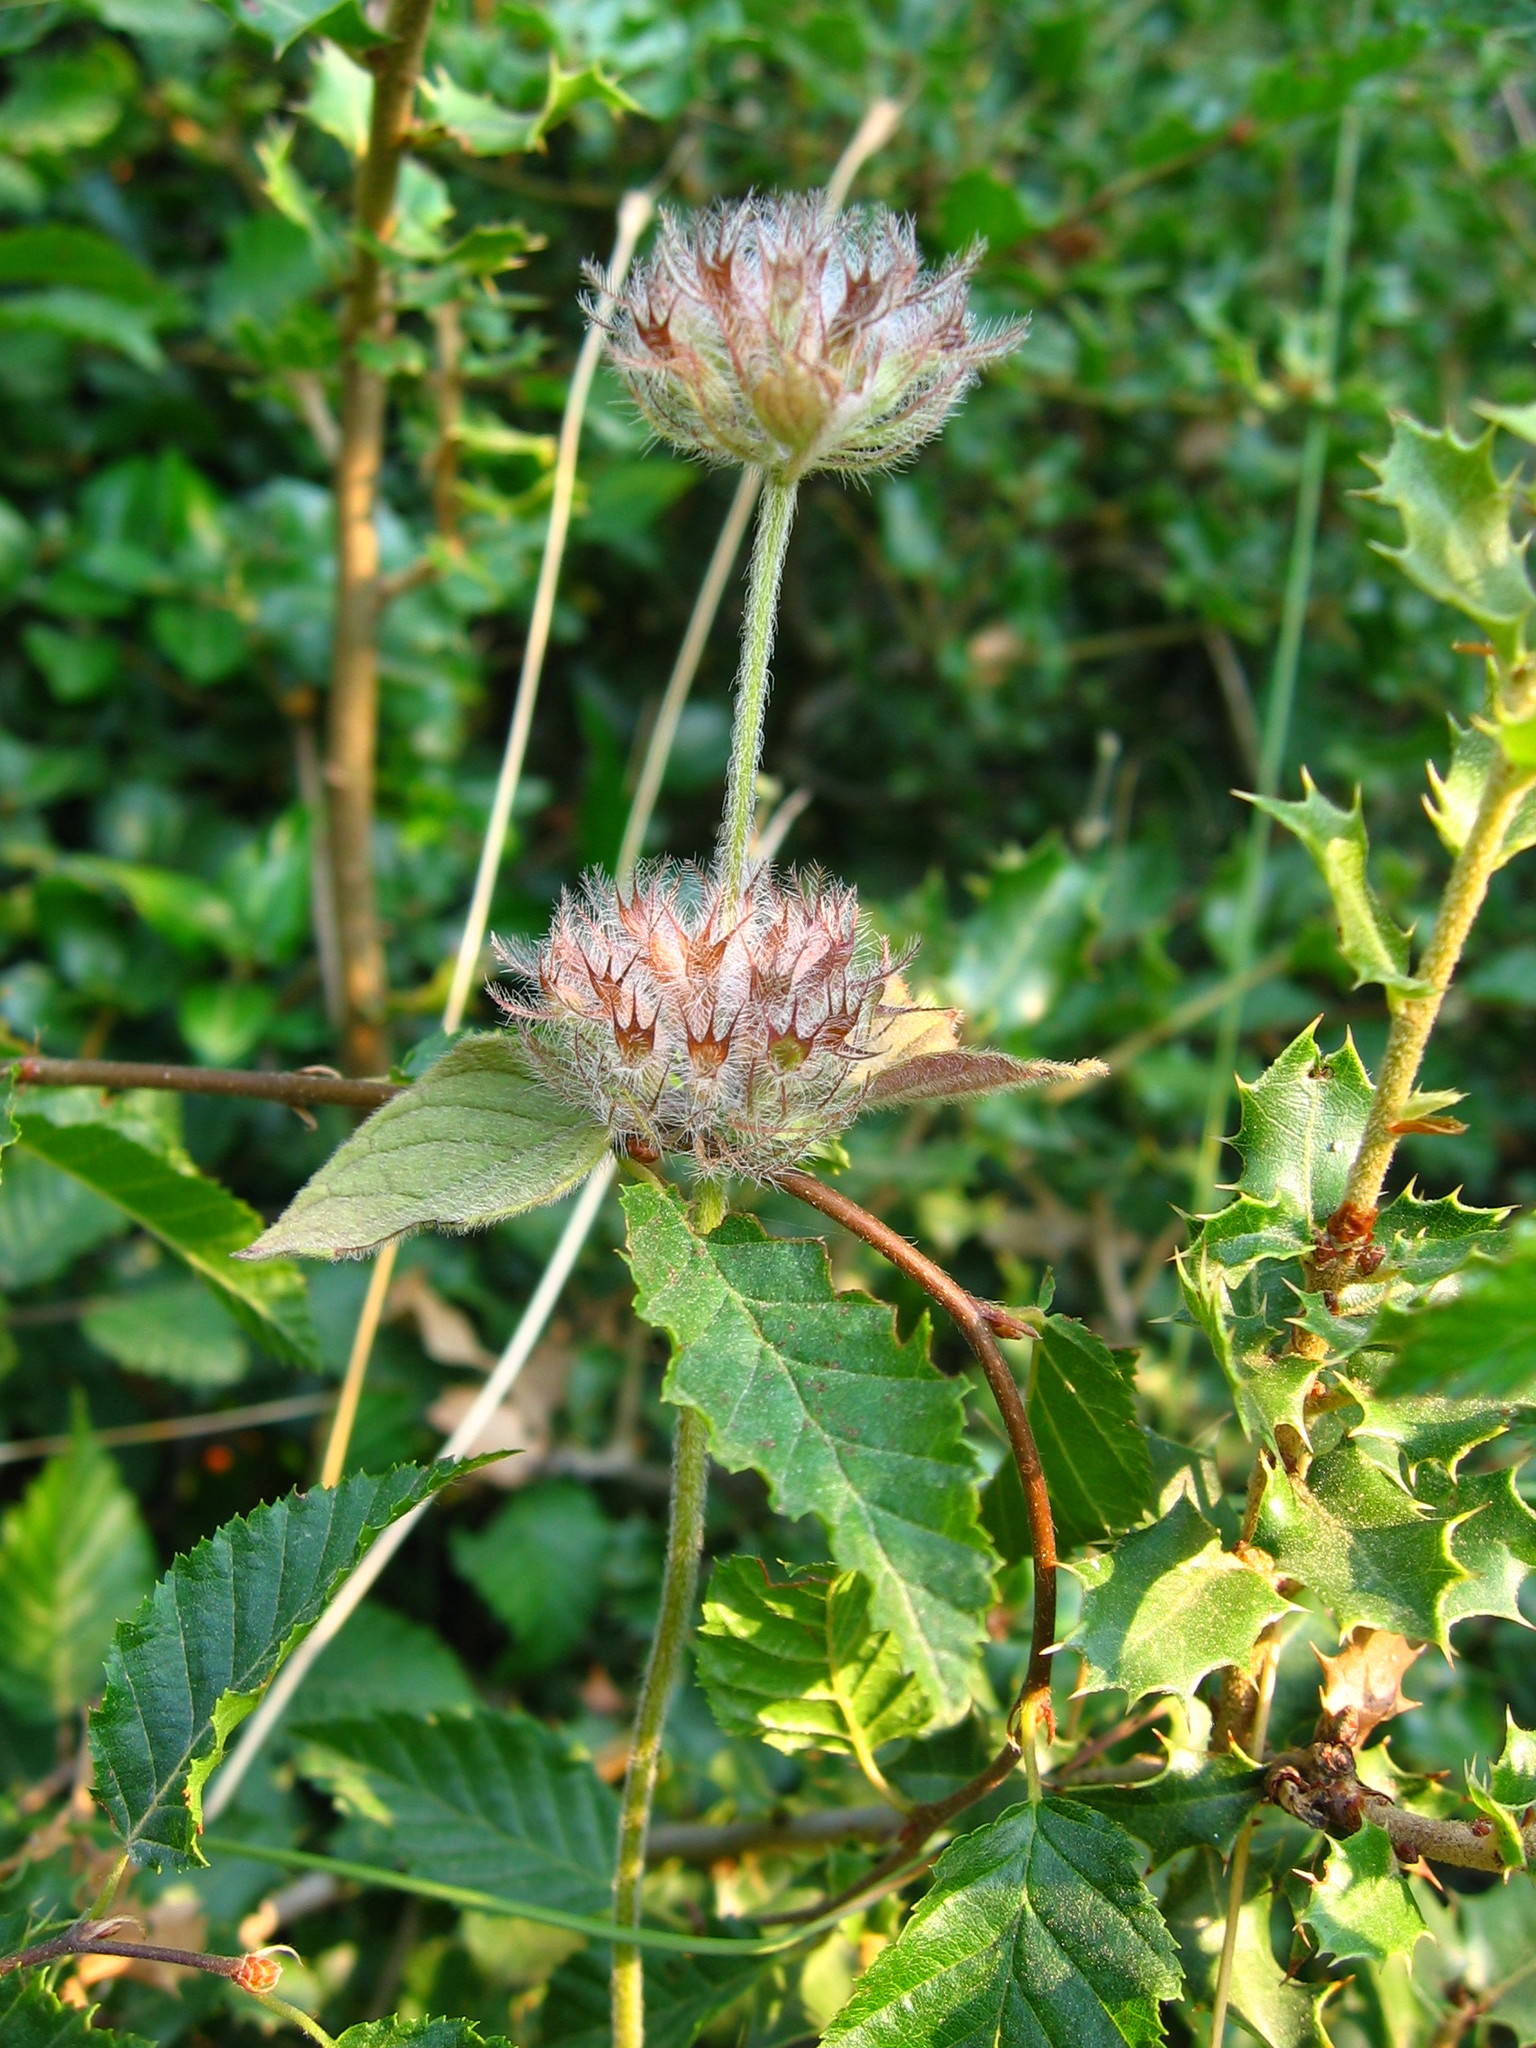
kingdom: Plantae
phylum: Tracheophyta
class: Magnoliopsida
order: Lamiales
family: Lamiaceae
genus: Clinopodium
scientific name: Clinopodium vulgare
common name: Wild basil
